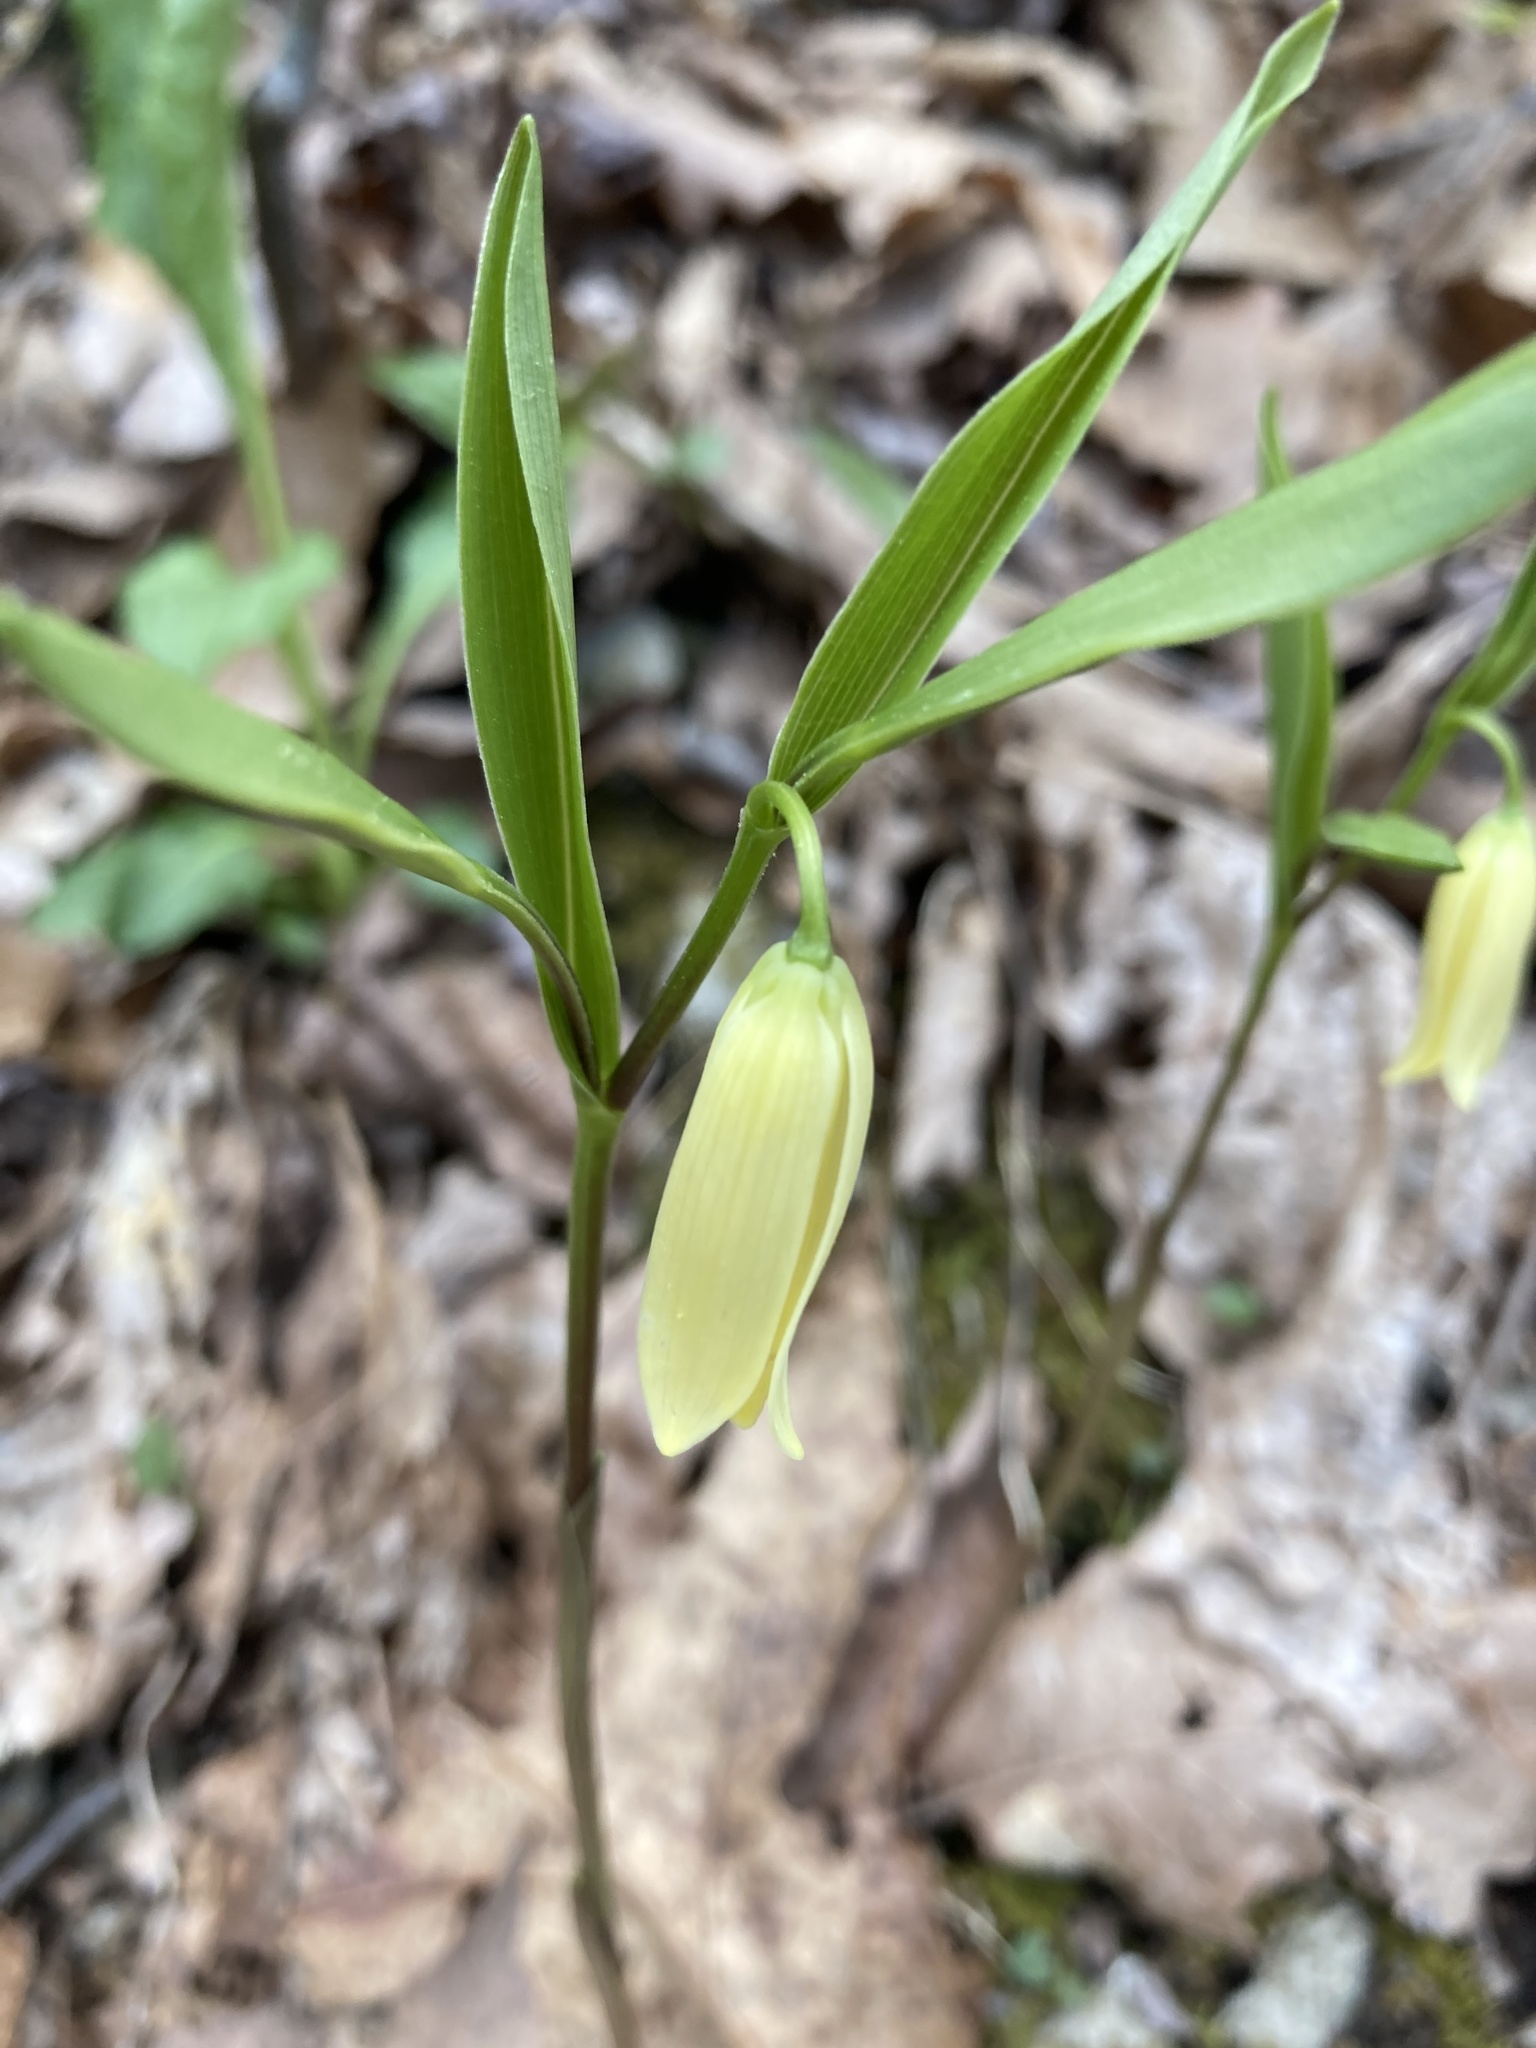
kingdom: Plantae
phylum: Tracheophyta
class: Liliopsida
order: Liliales
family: Colchicaceae
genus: Uvularia
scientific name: Uvularia puberula
